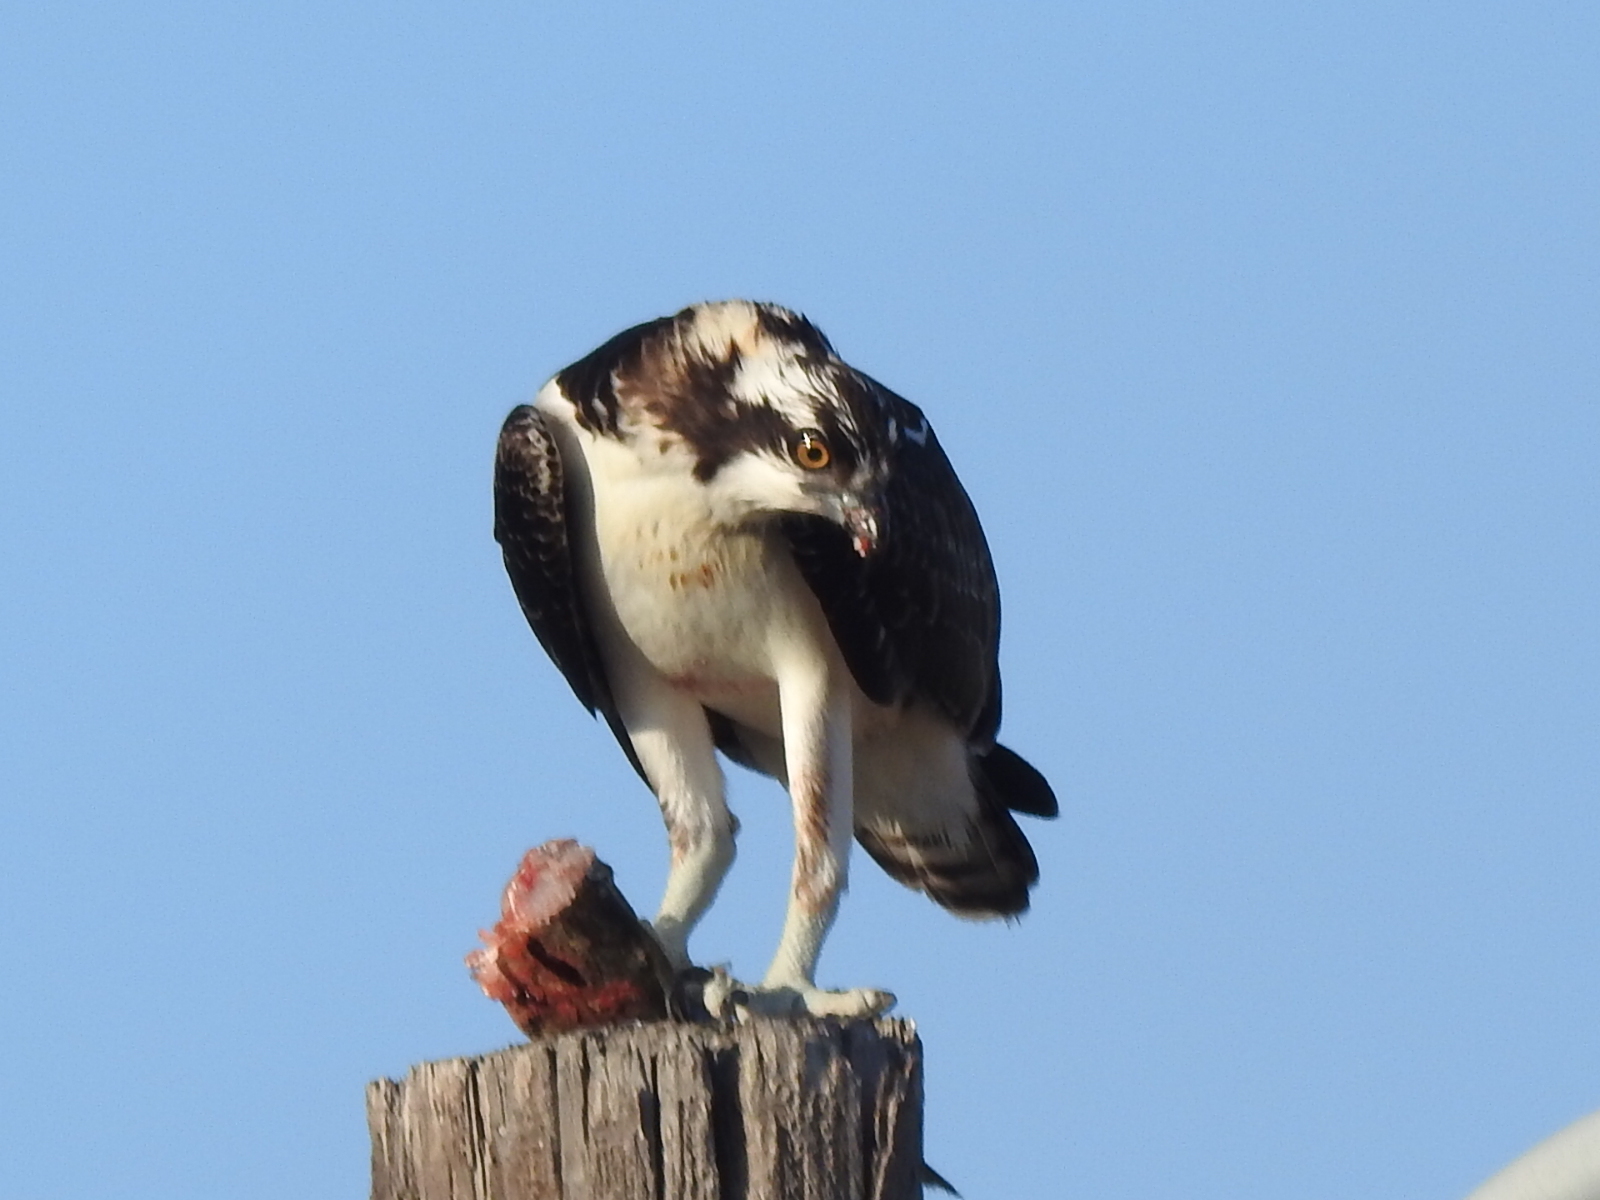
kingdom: Animalia
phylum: Chordata
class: Aves
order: Accipitriformes
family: Pandionidae
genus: Pandion
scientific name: Pandion haliaetus
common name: Osprey
